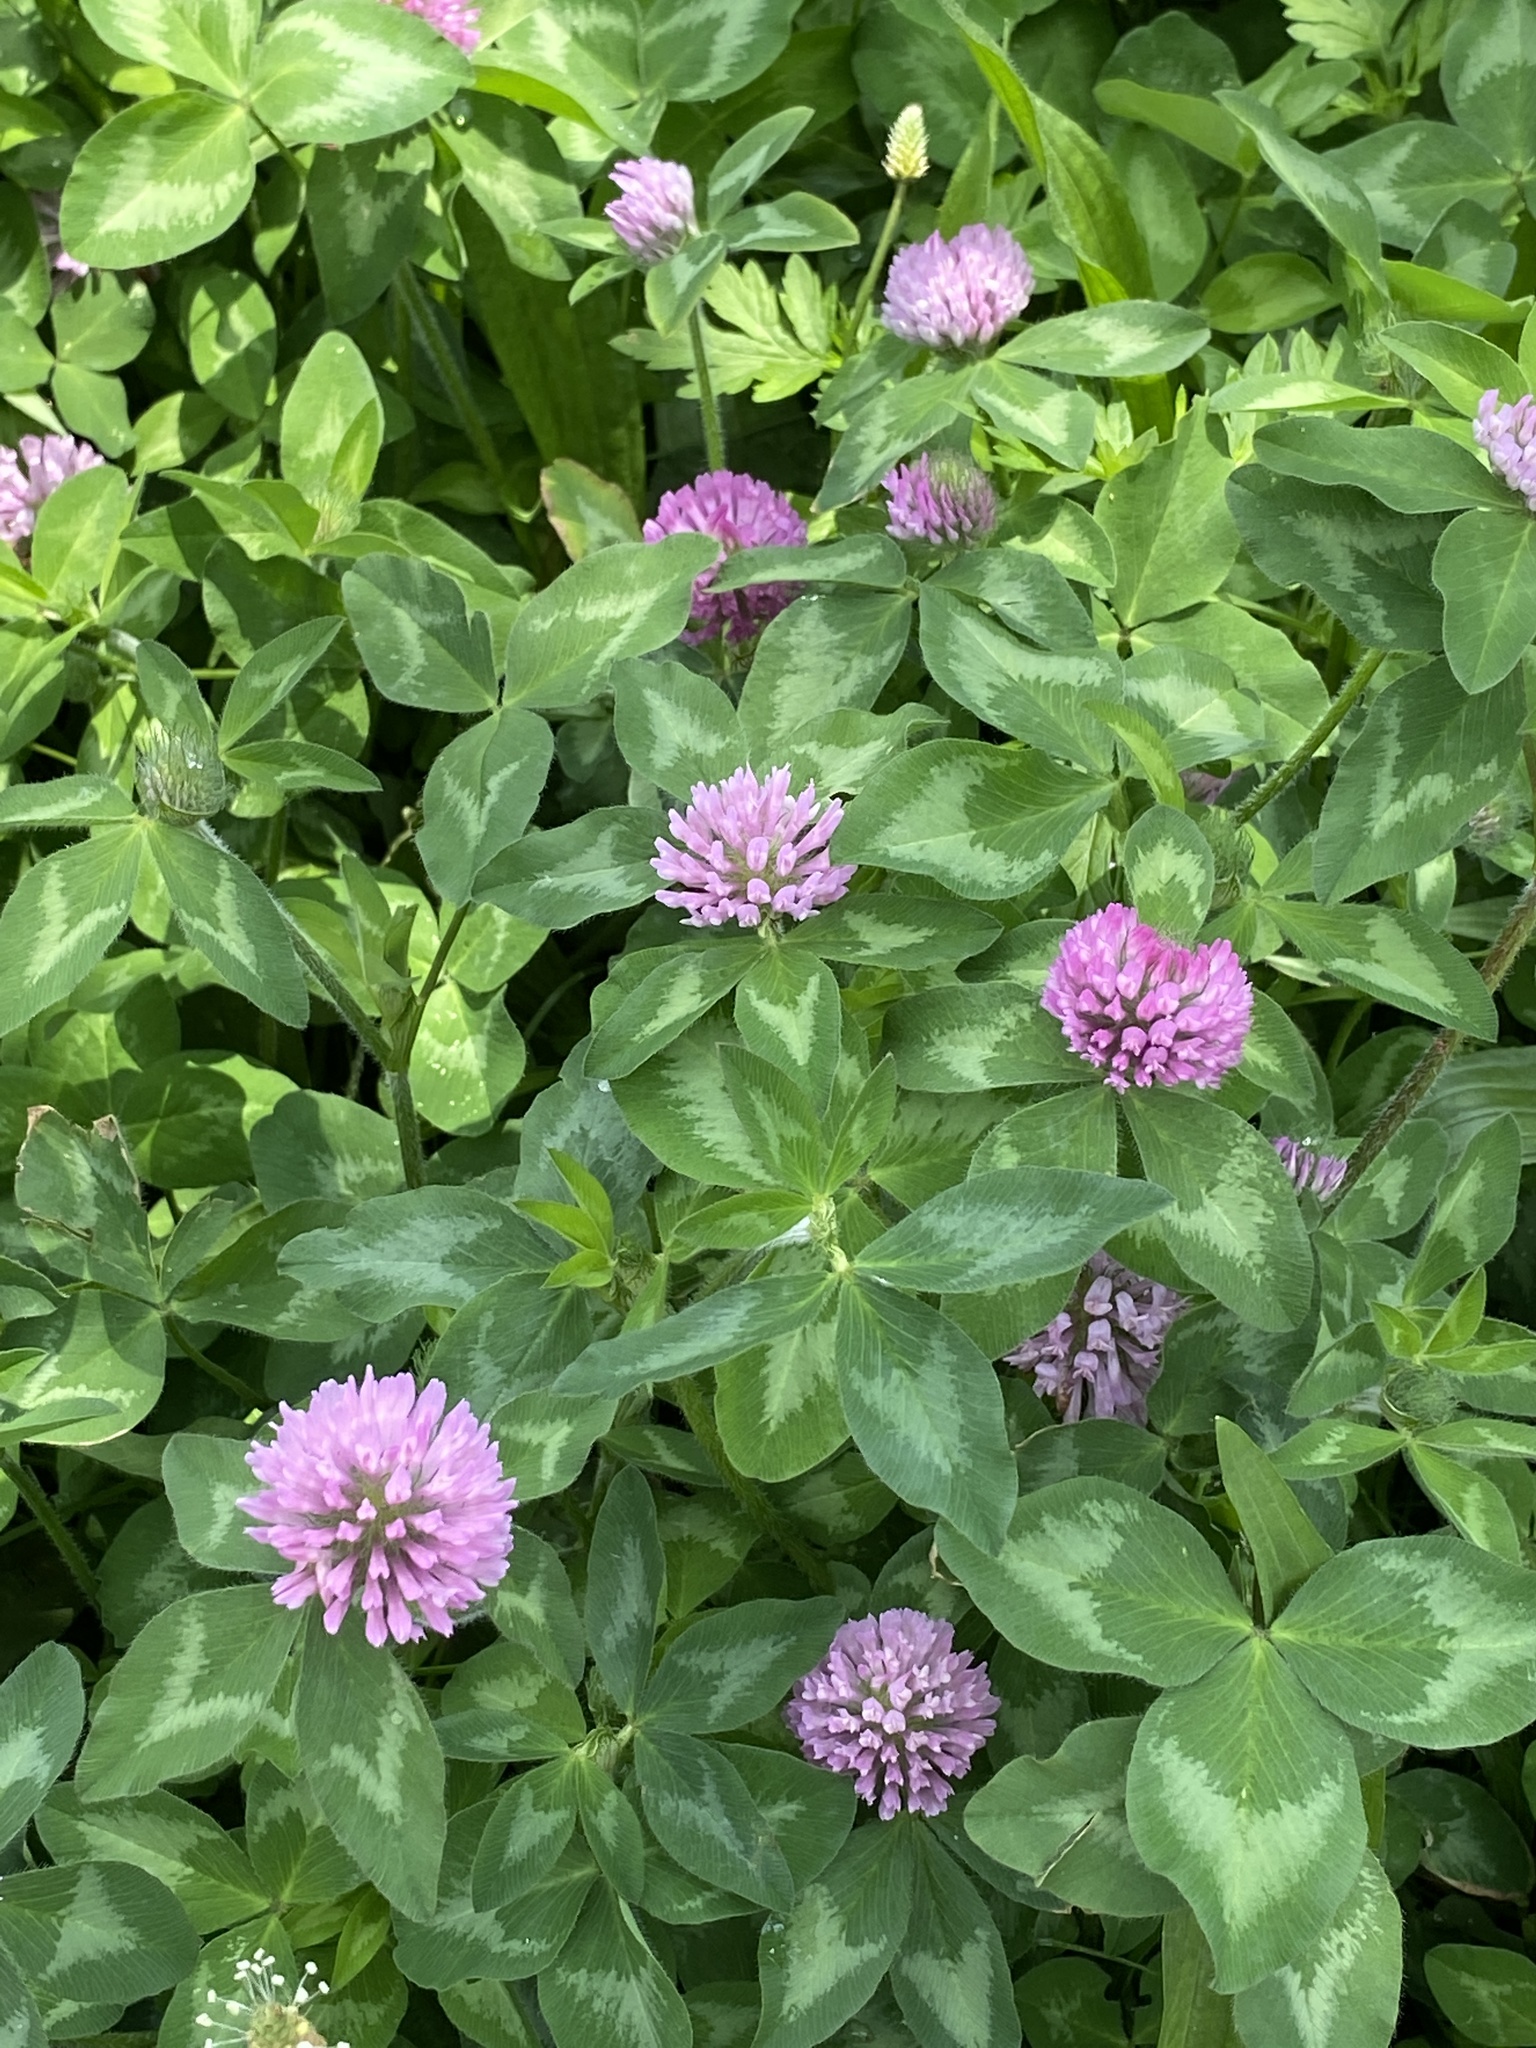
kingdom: Plantae
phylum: Tracheophyta
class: Magnoliopsida
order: Fabales
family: Fabaceae
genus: Trifolium
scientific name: Trifolium pratense
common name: Red clover
